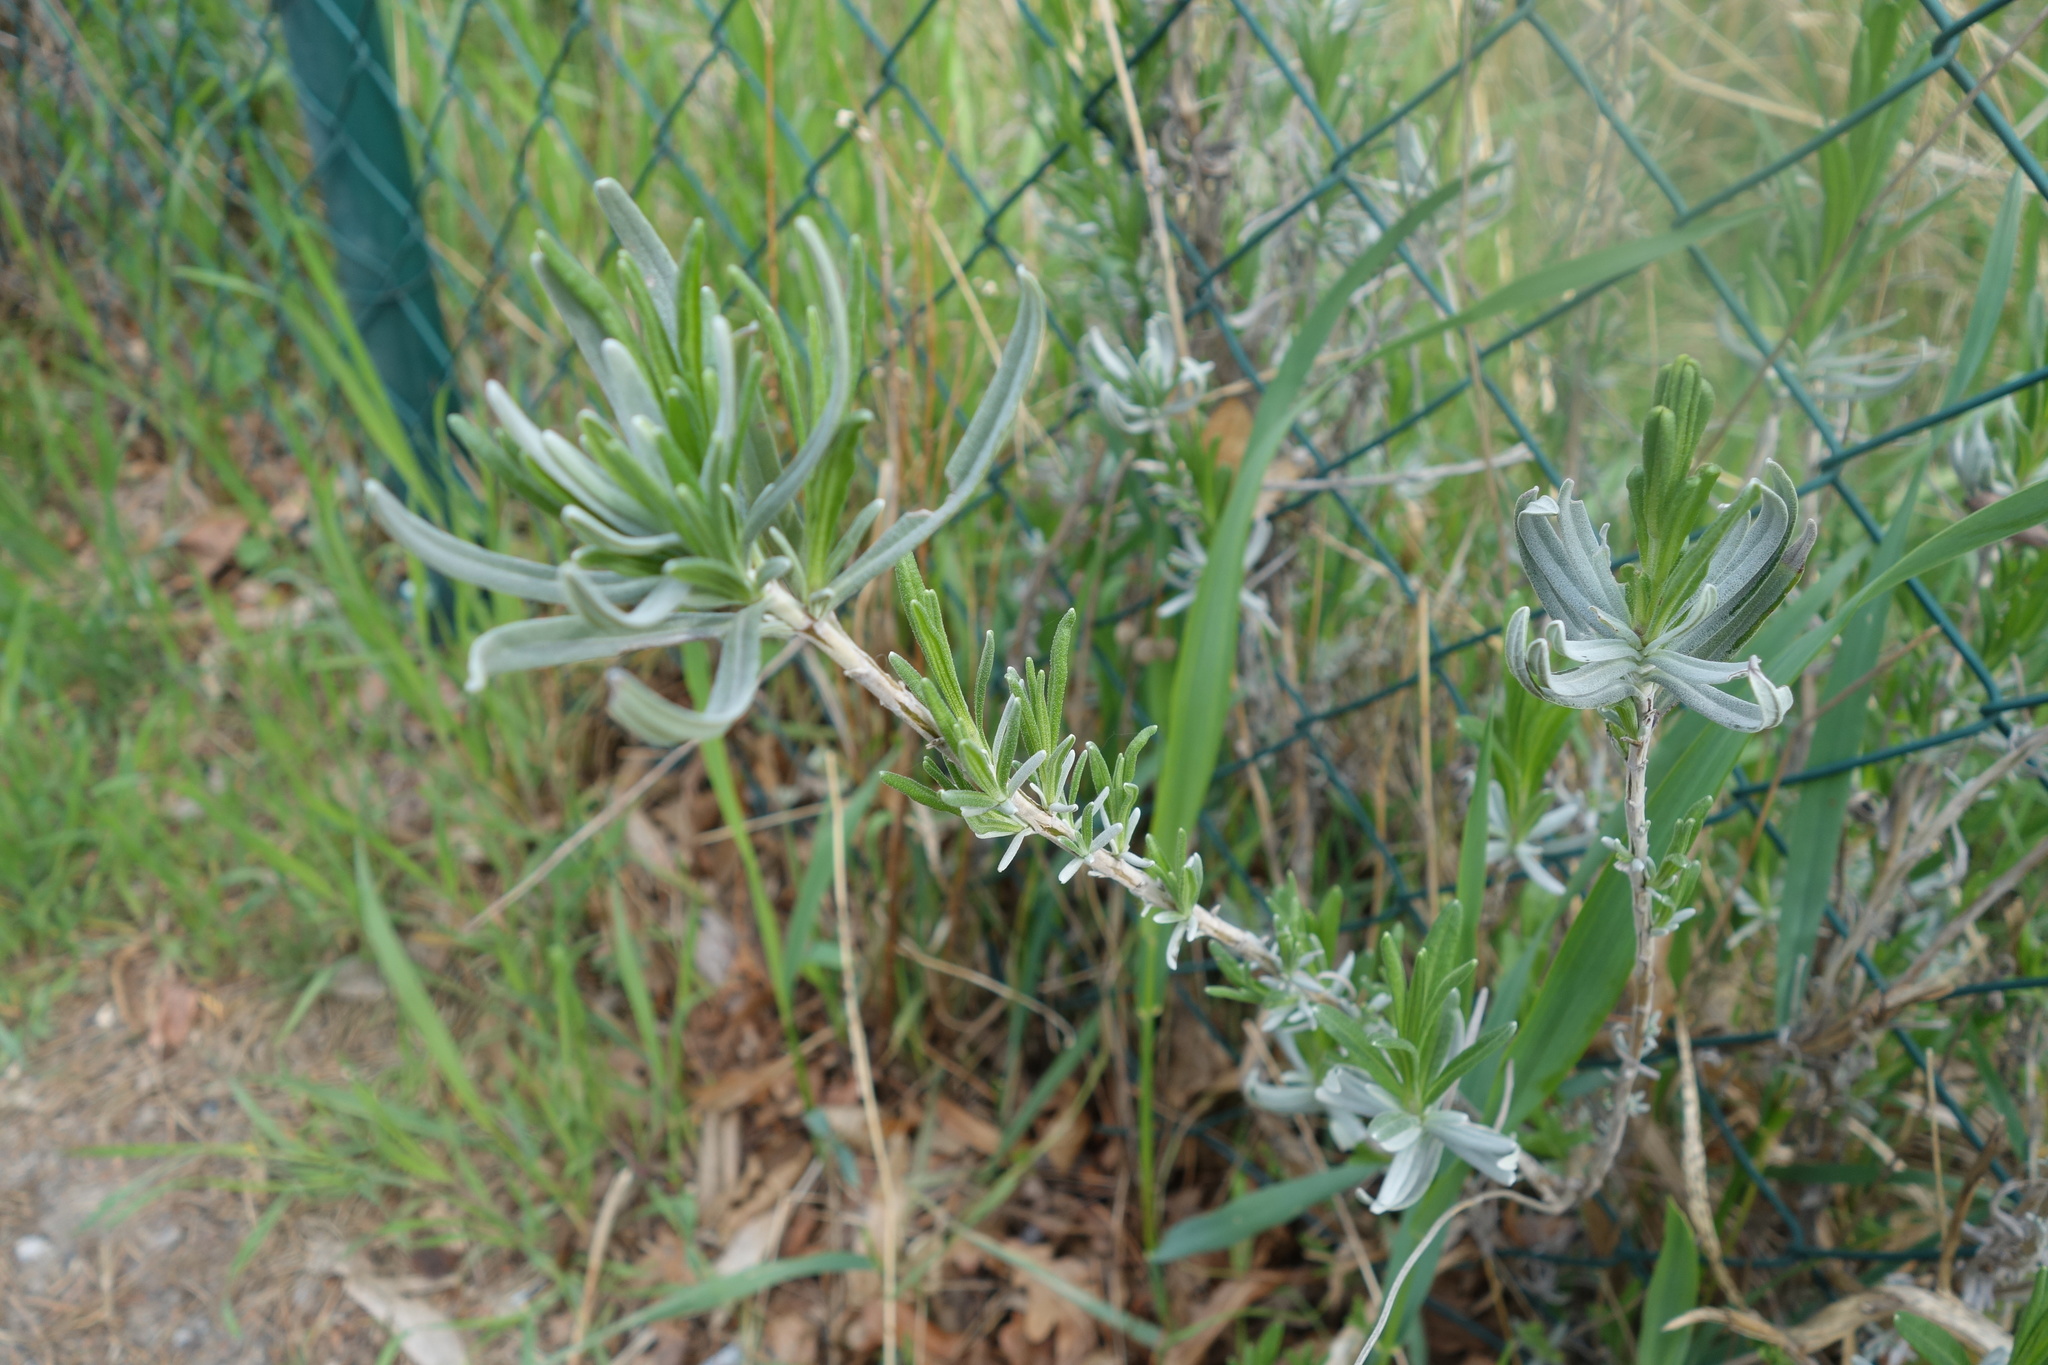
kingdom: Plantae
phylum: Tracheophyta
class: Magnoliopsida
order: Lamiales
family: Lamiaceae
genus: Lavandula
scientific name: Lavandula angustifolia
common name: Garden lavender
